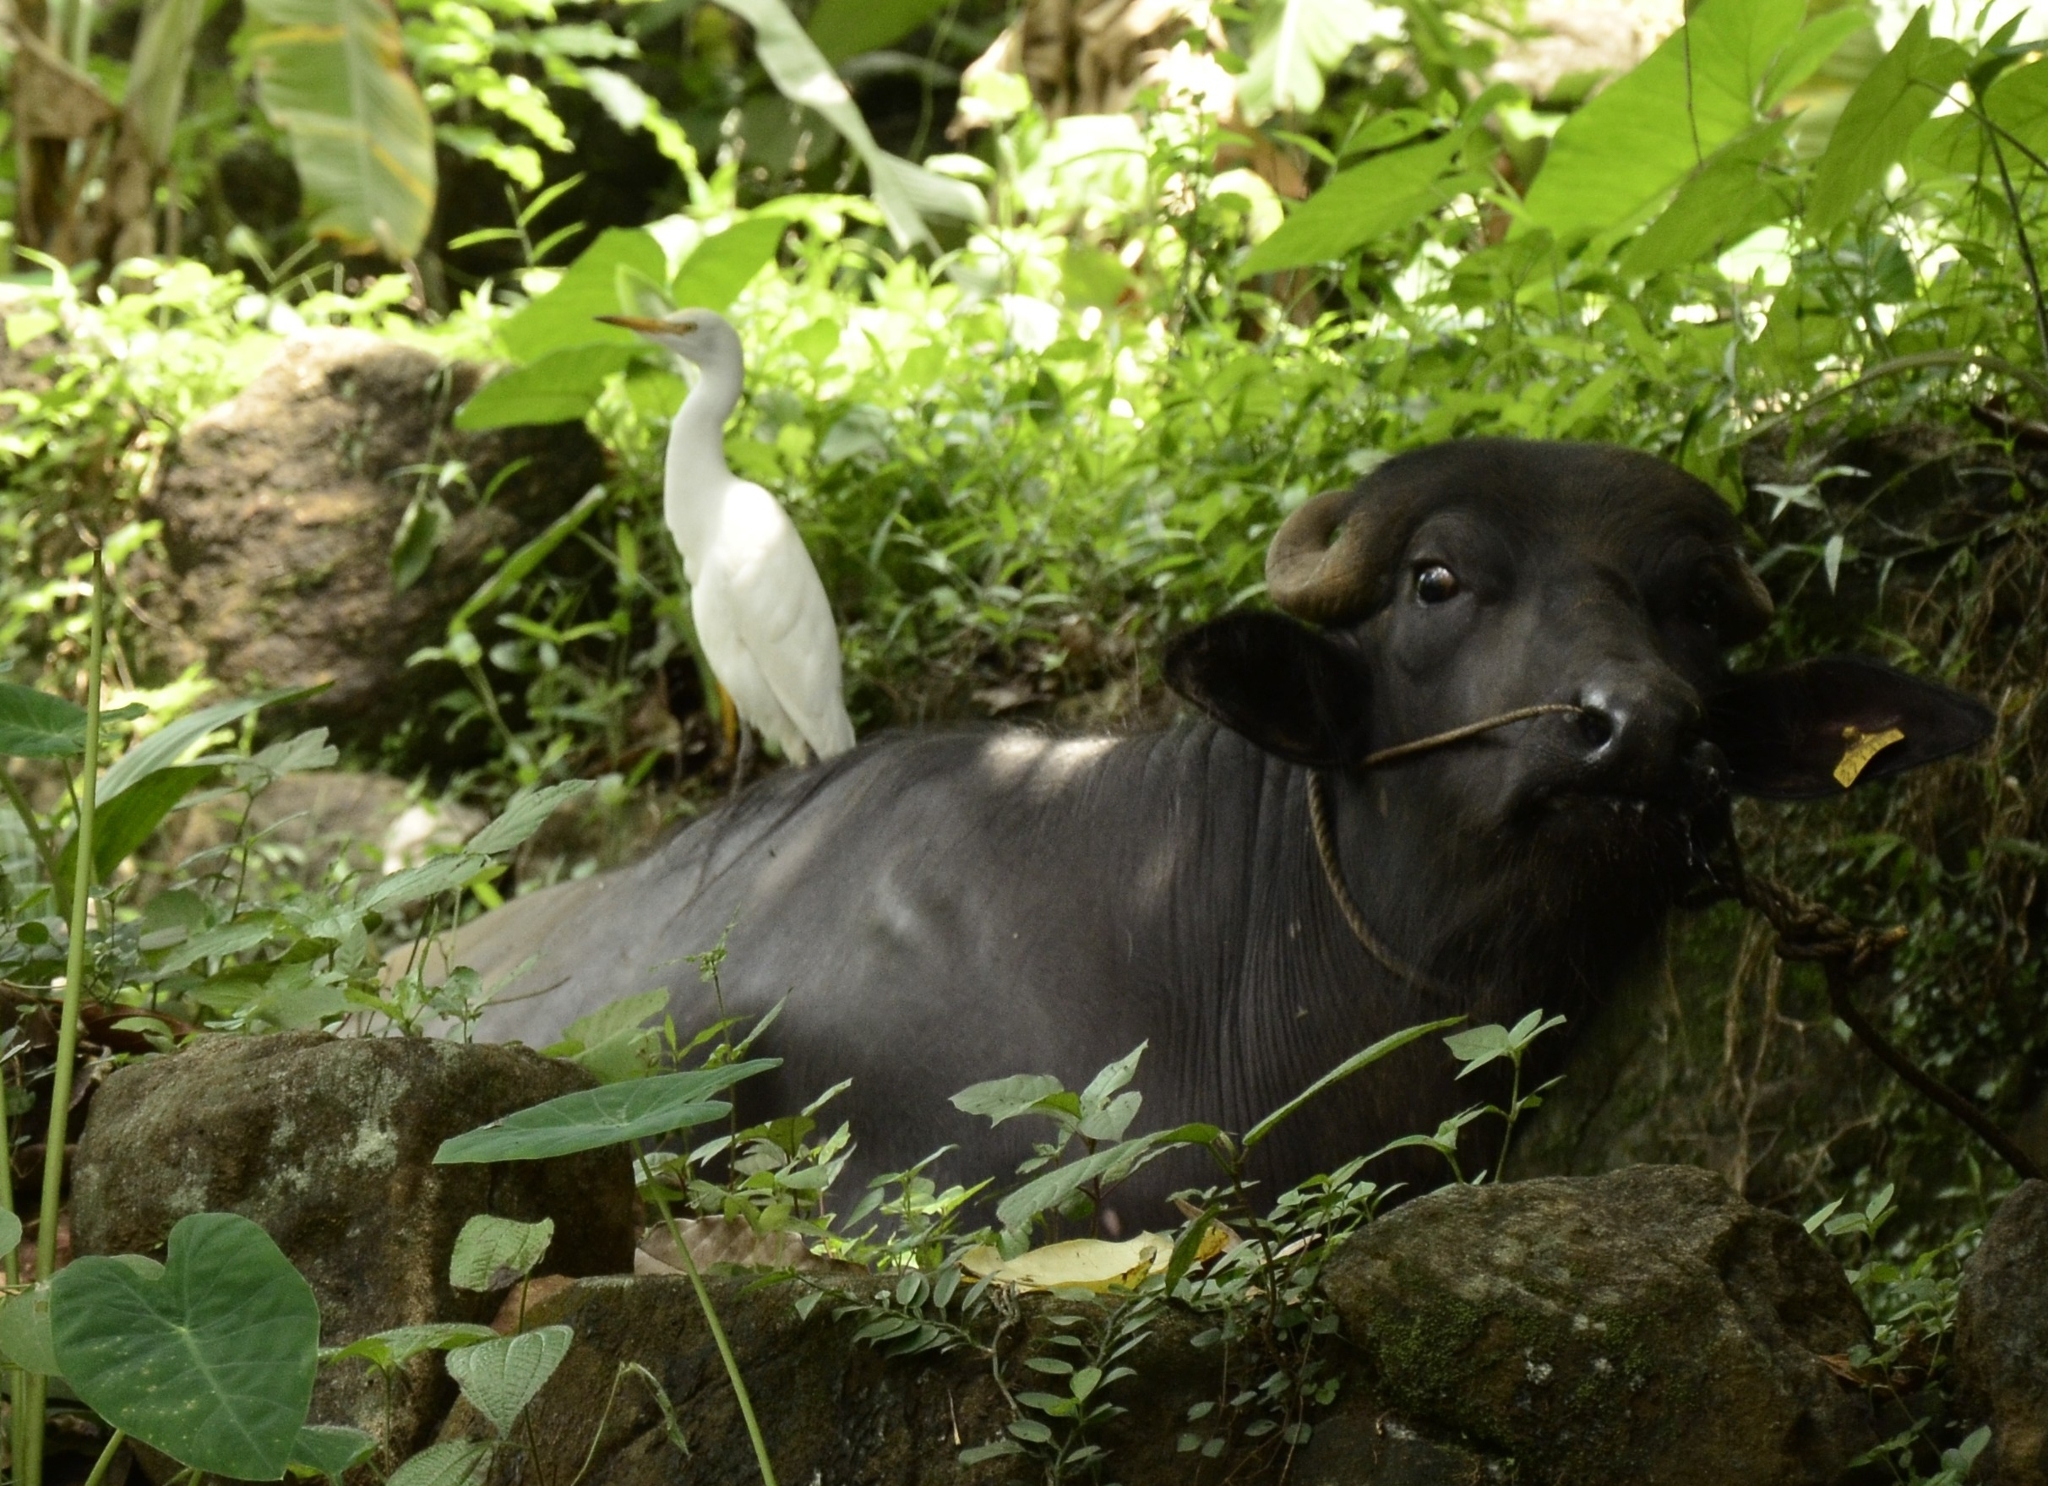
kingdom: Animalia
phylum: Chordata
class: Aves
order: Pelecaniformes
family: Ardeidae
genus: Bubulcus
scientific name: Bubulcus coromandus
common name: Eastern cattle egret
